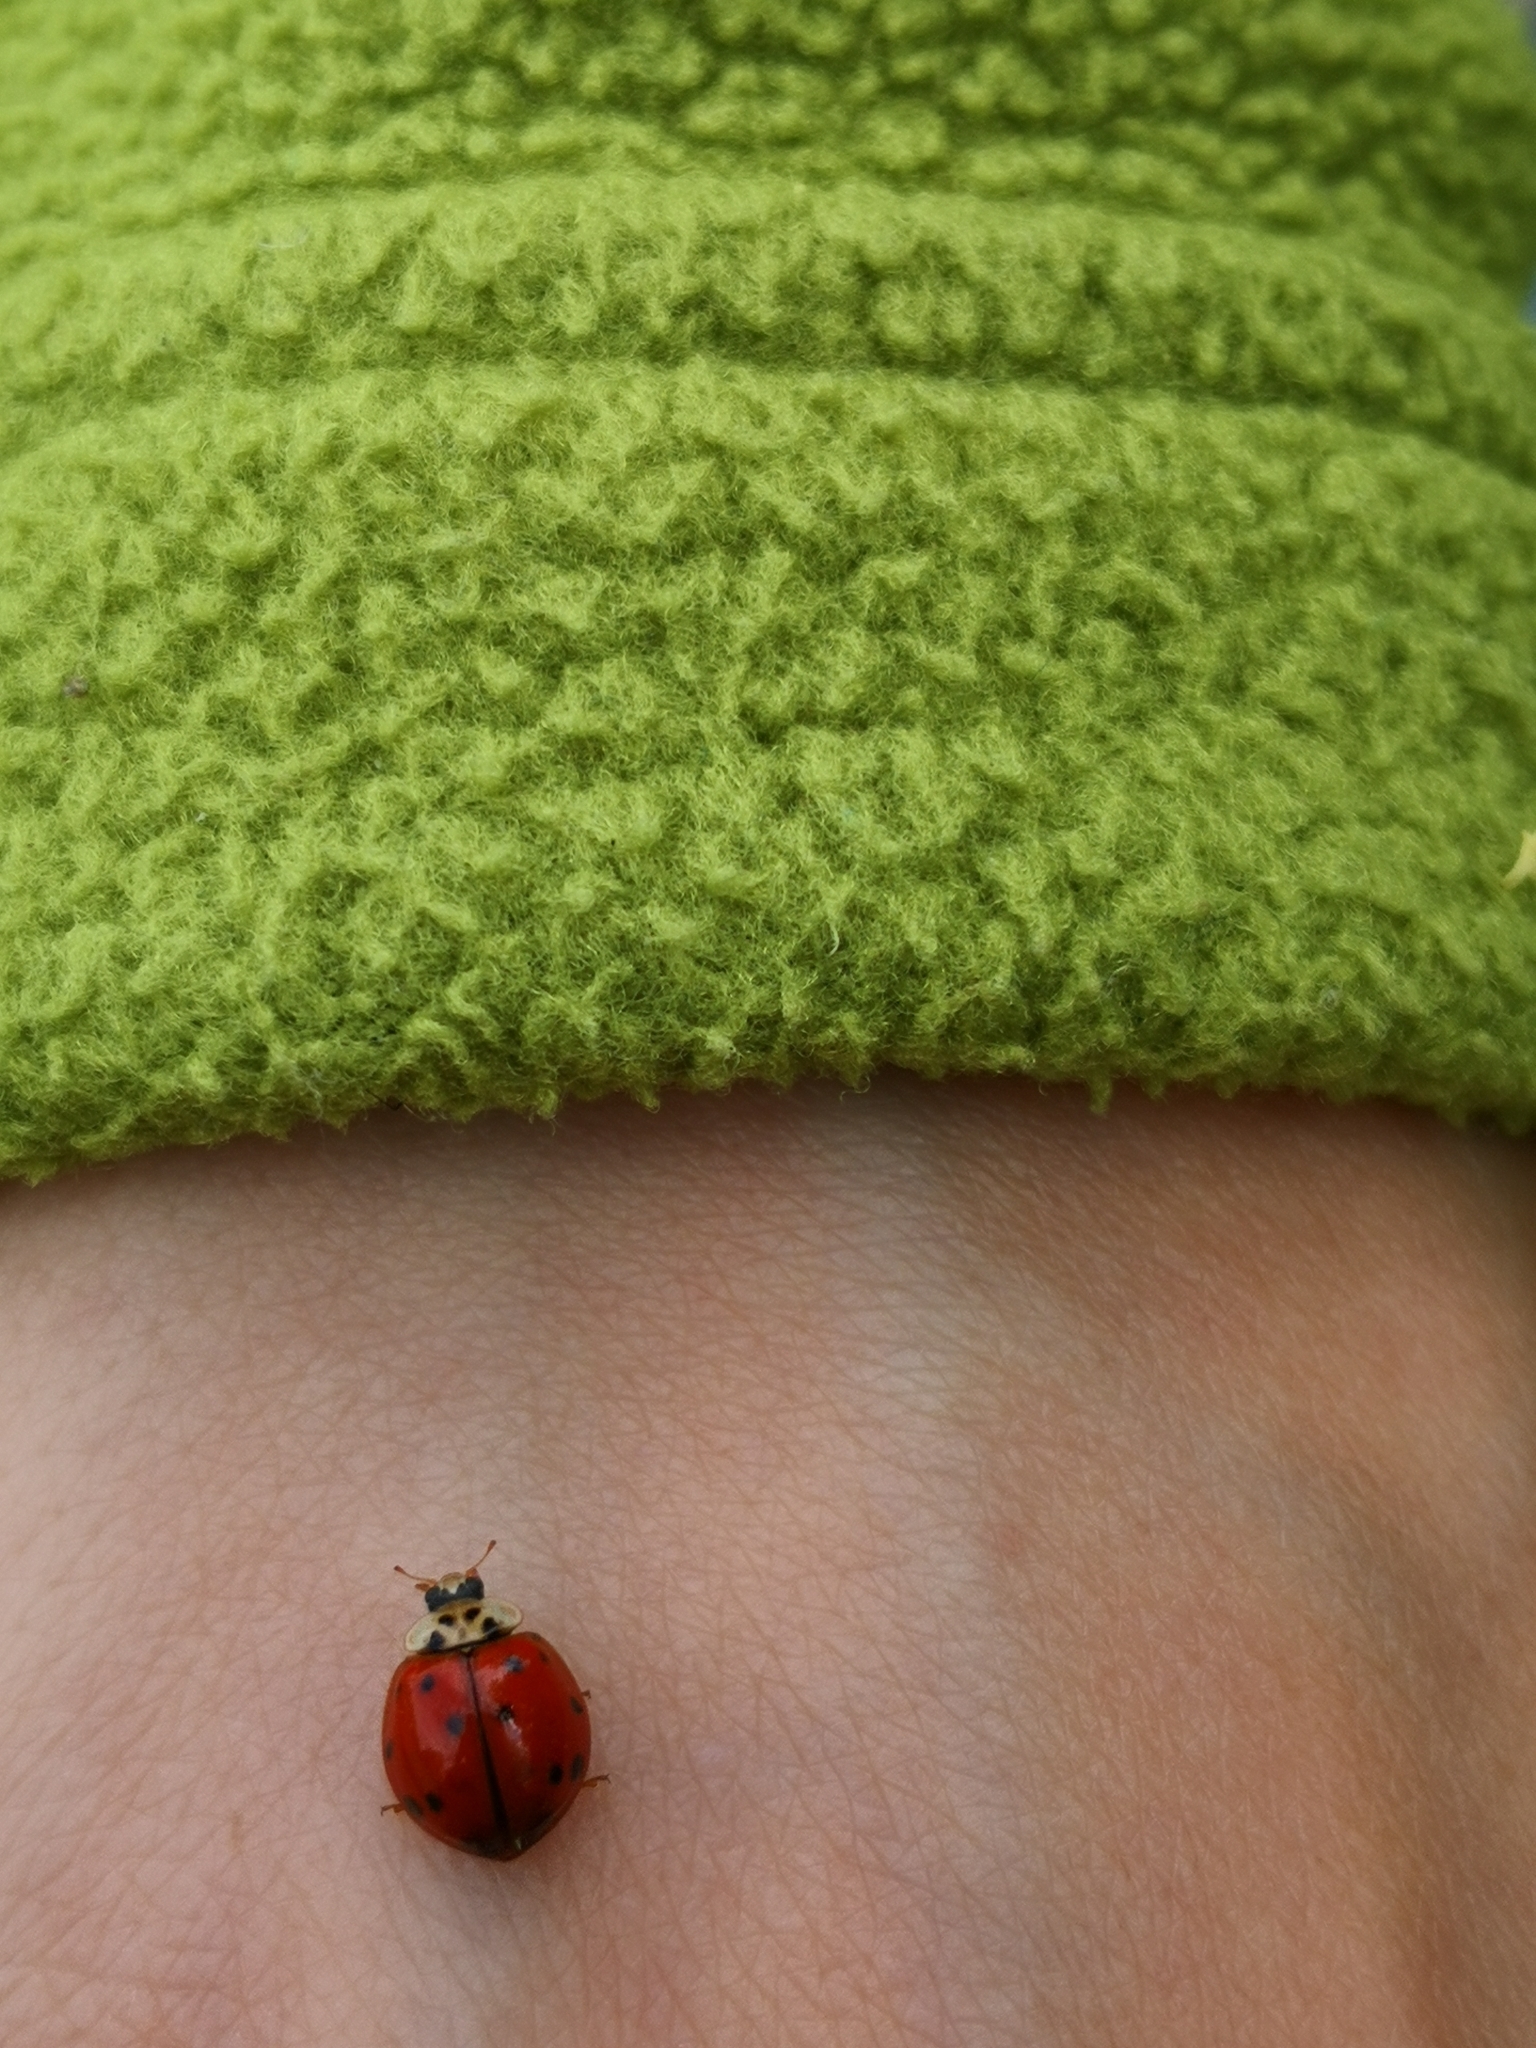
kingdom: Animalia
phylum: Arthropoda
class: Insecta
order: Coleoptera
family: Coccinellidae
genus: Harmonia
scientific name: Harmonia axyridis
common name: Harlequin ladybird
